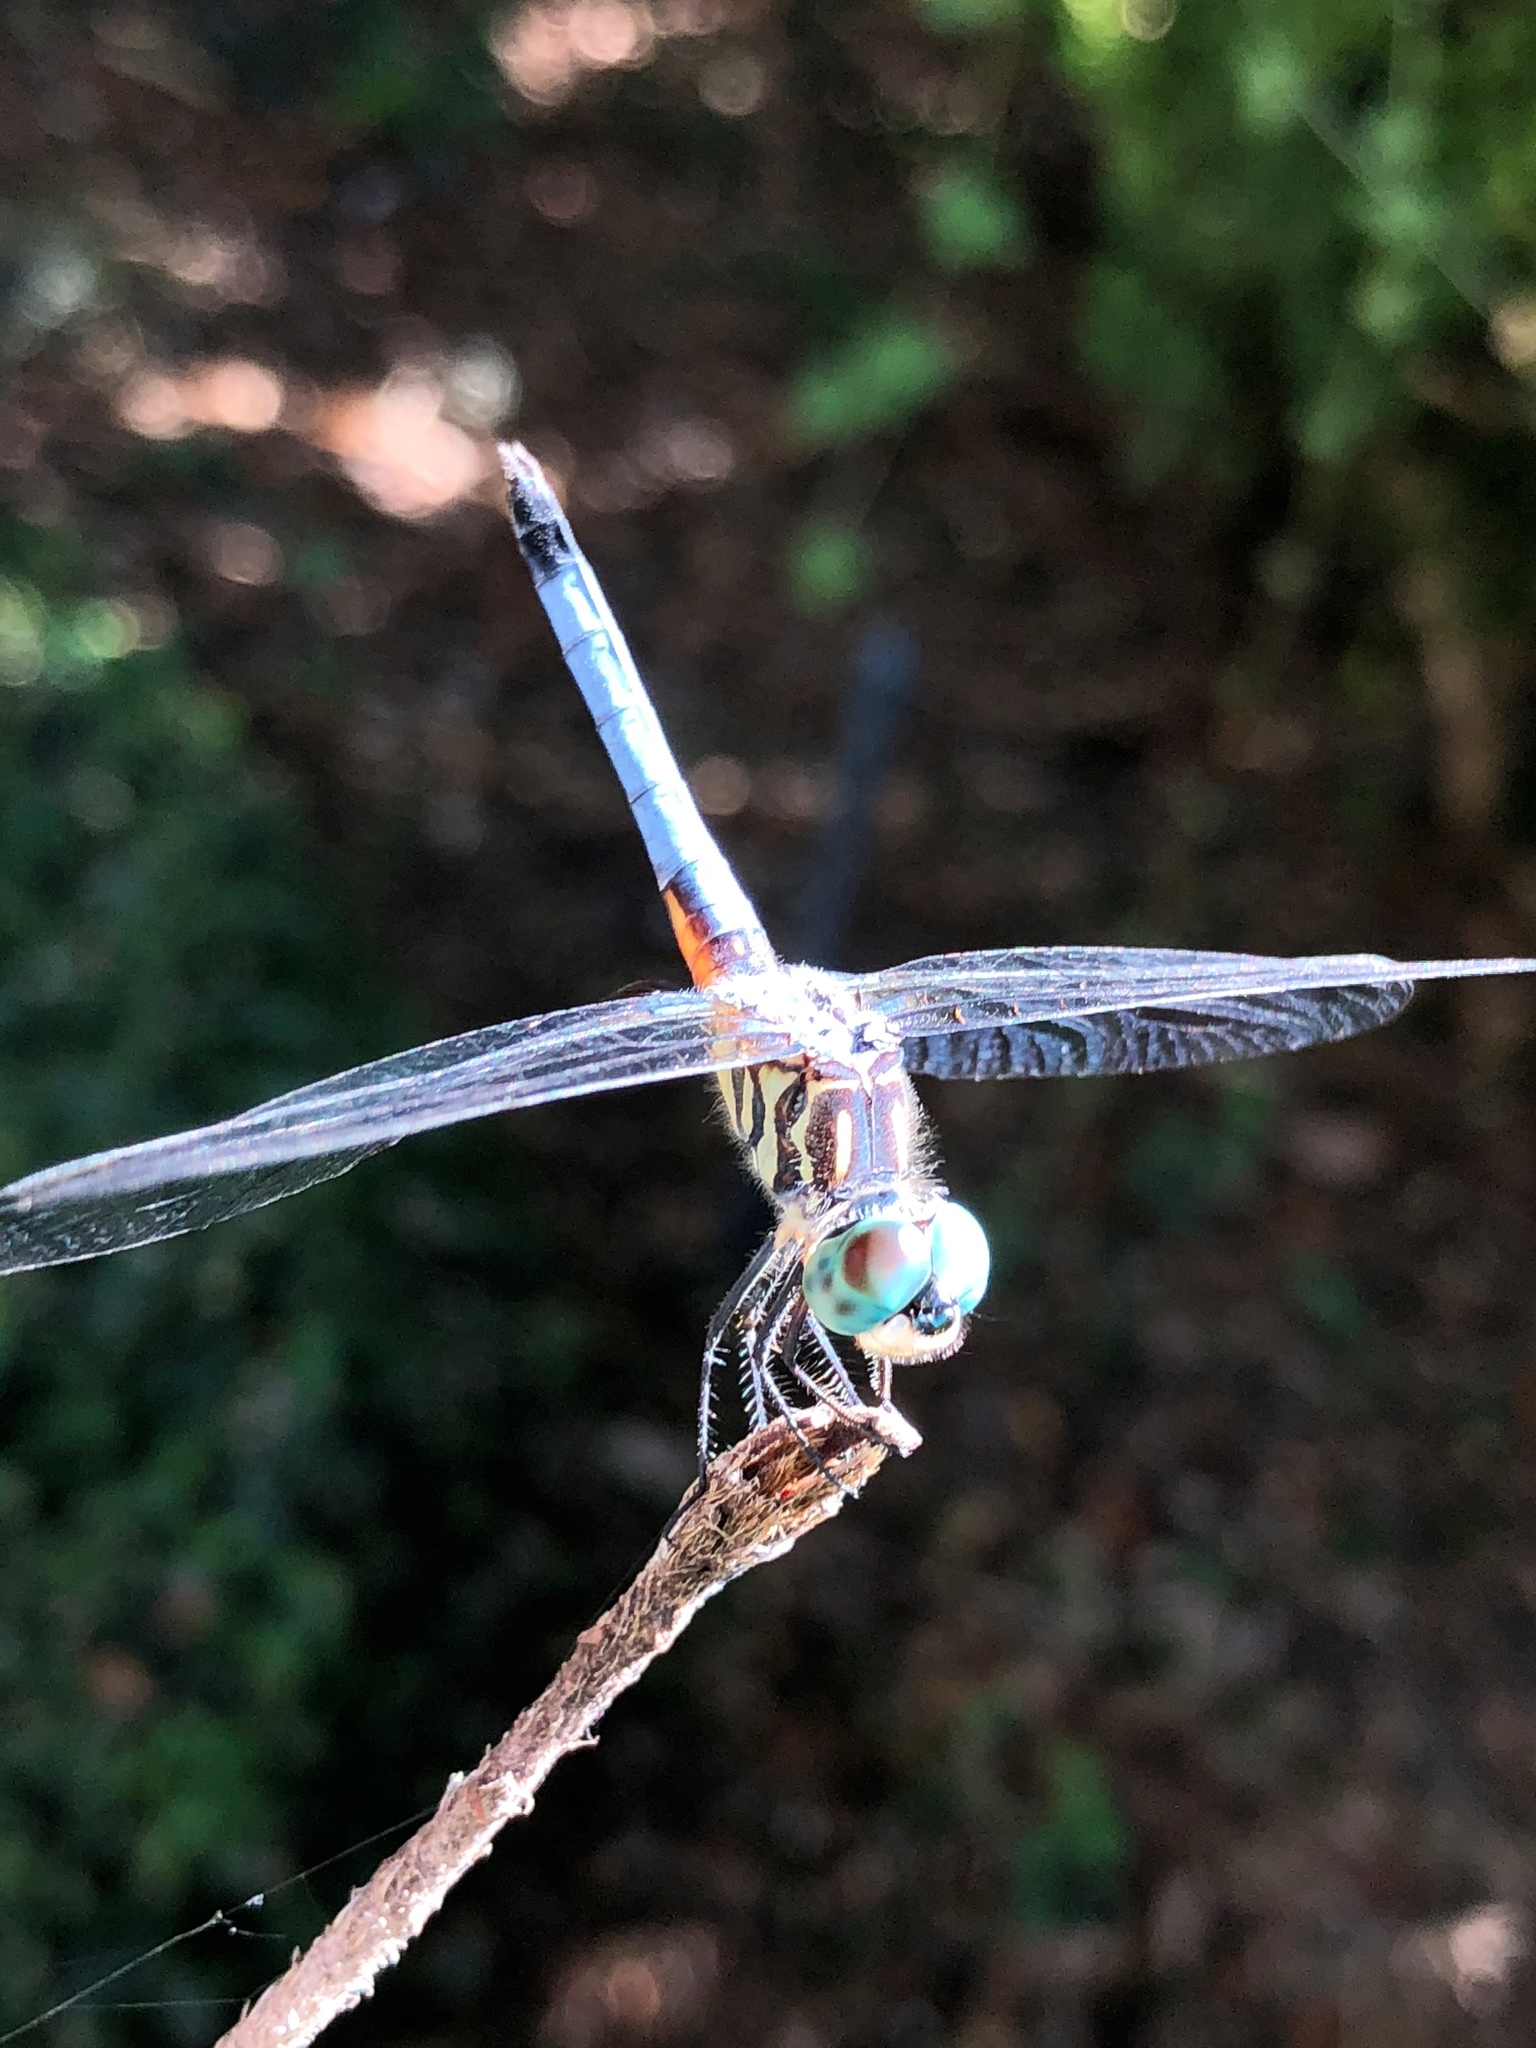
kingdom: Animalia
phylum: Arthropoda
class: Insecta
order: Odonata
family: Libellulidae
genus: Pachydiplax
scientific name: Pachydiplax longipennis
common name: Blue dasher
